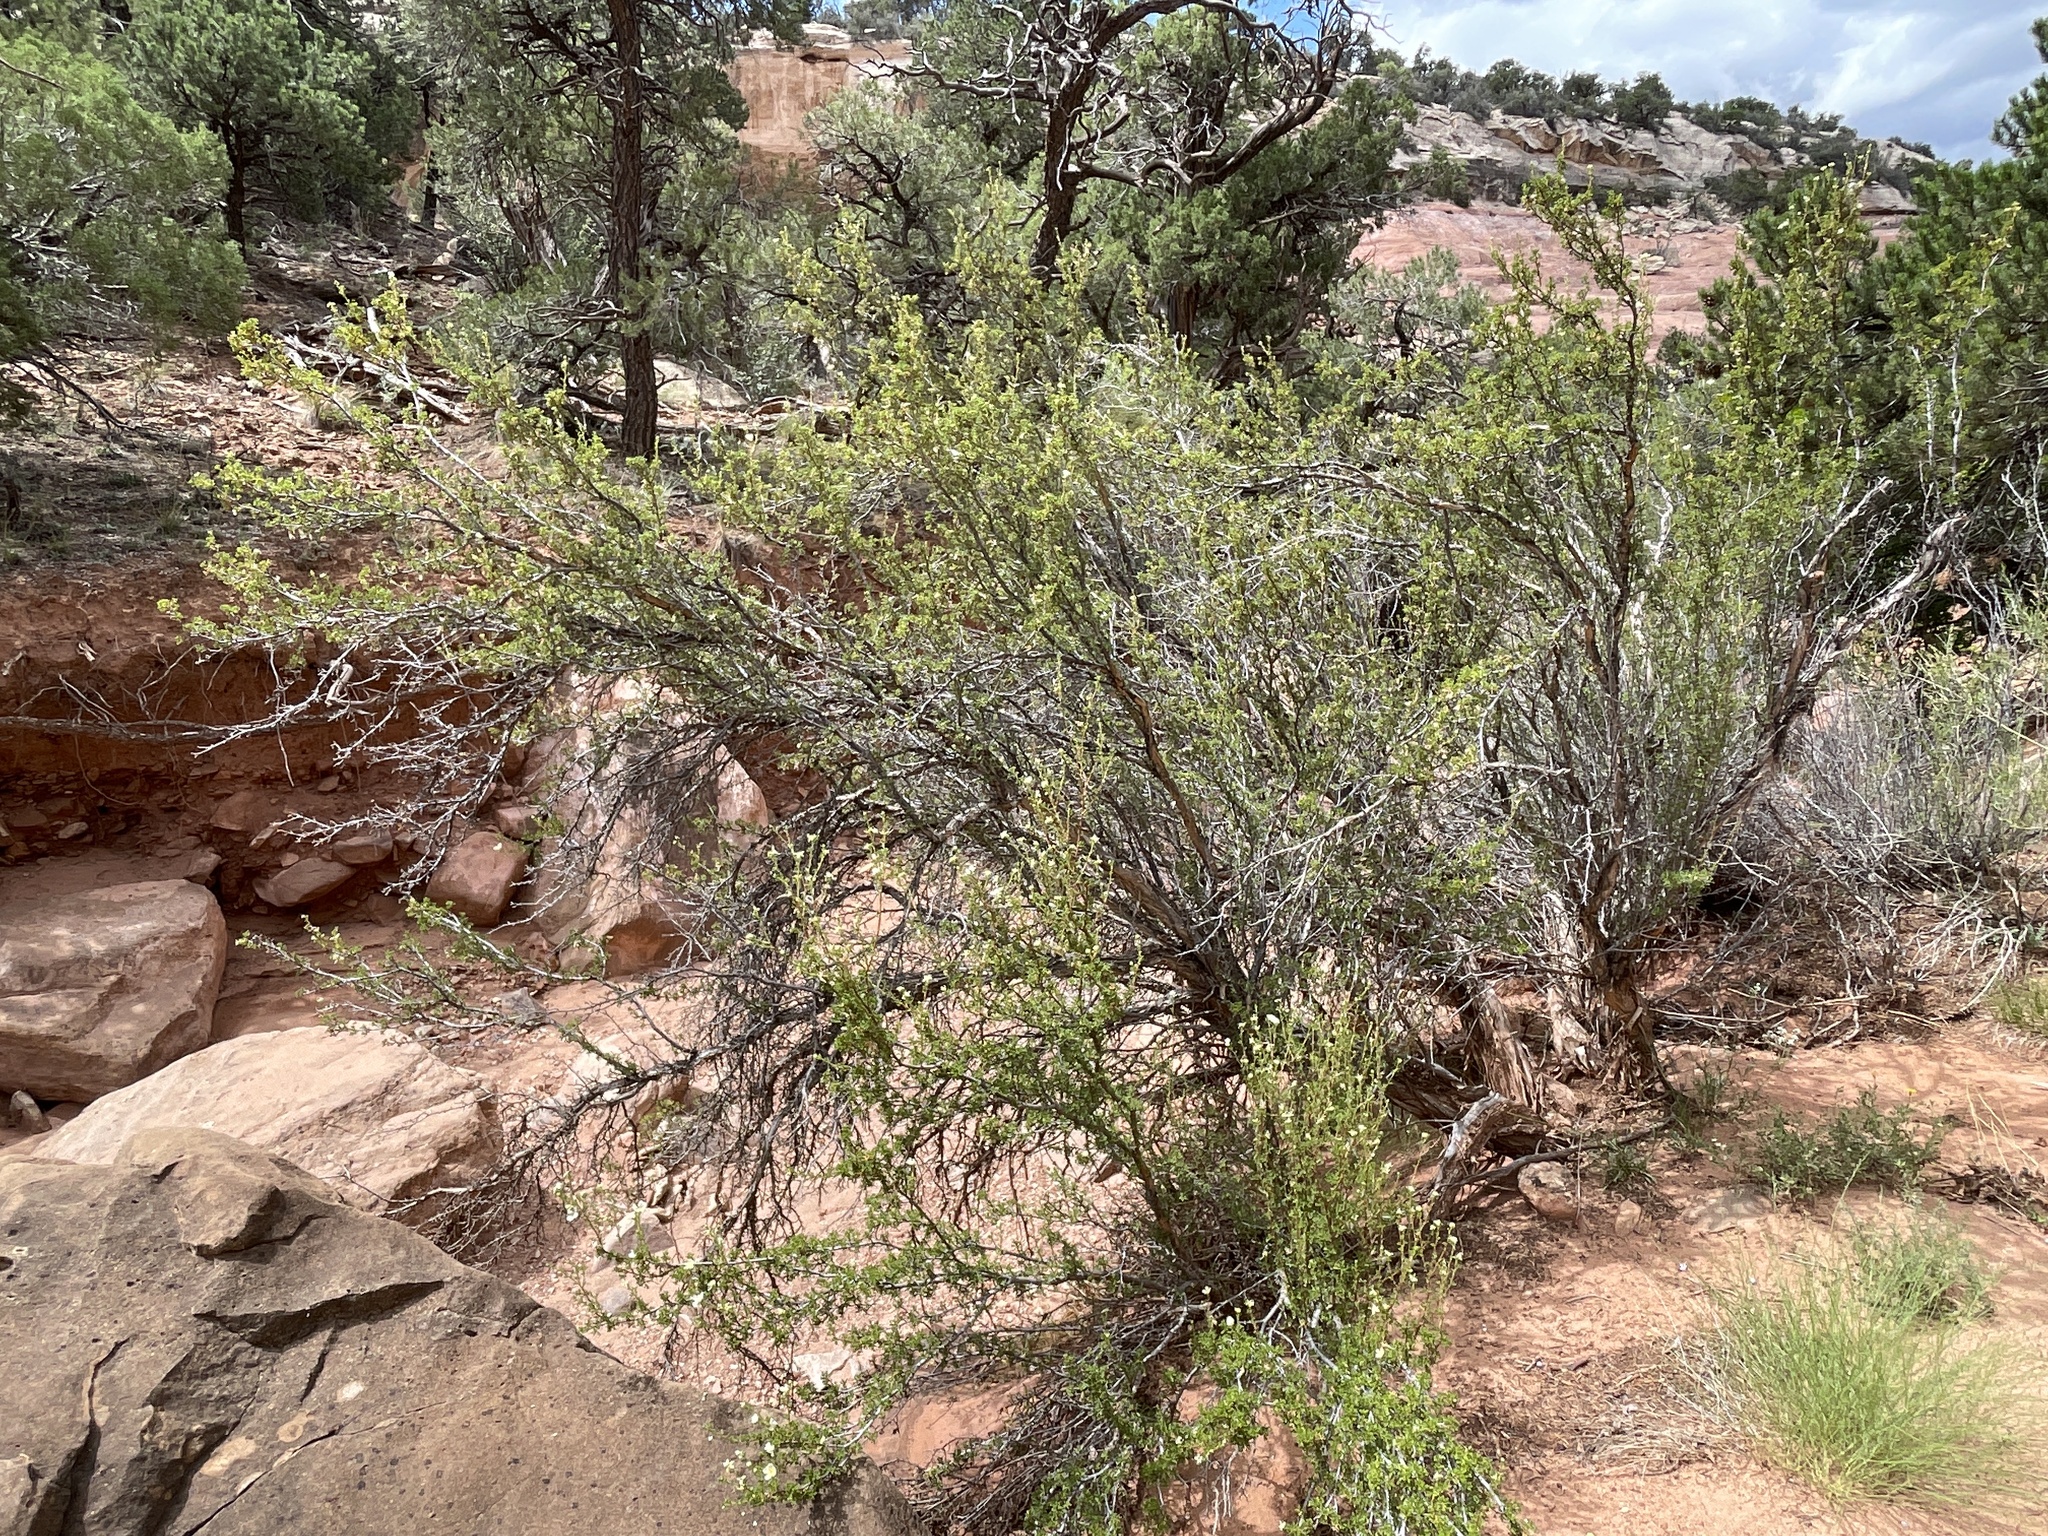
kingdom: Plantae
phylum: Tracheophyta
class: Magnoliopsida
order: Rosales
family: Rosaceae
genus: Purshia
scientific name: Purshia stansburiana
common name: Stansbury's cliffrose
